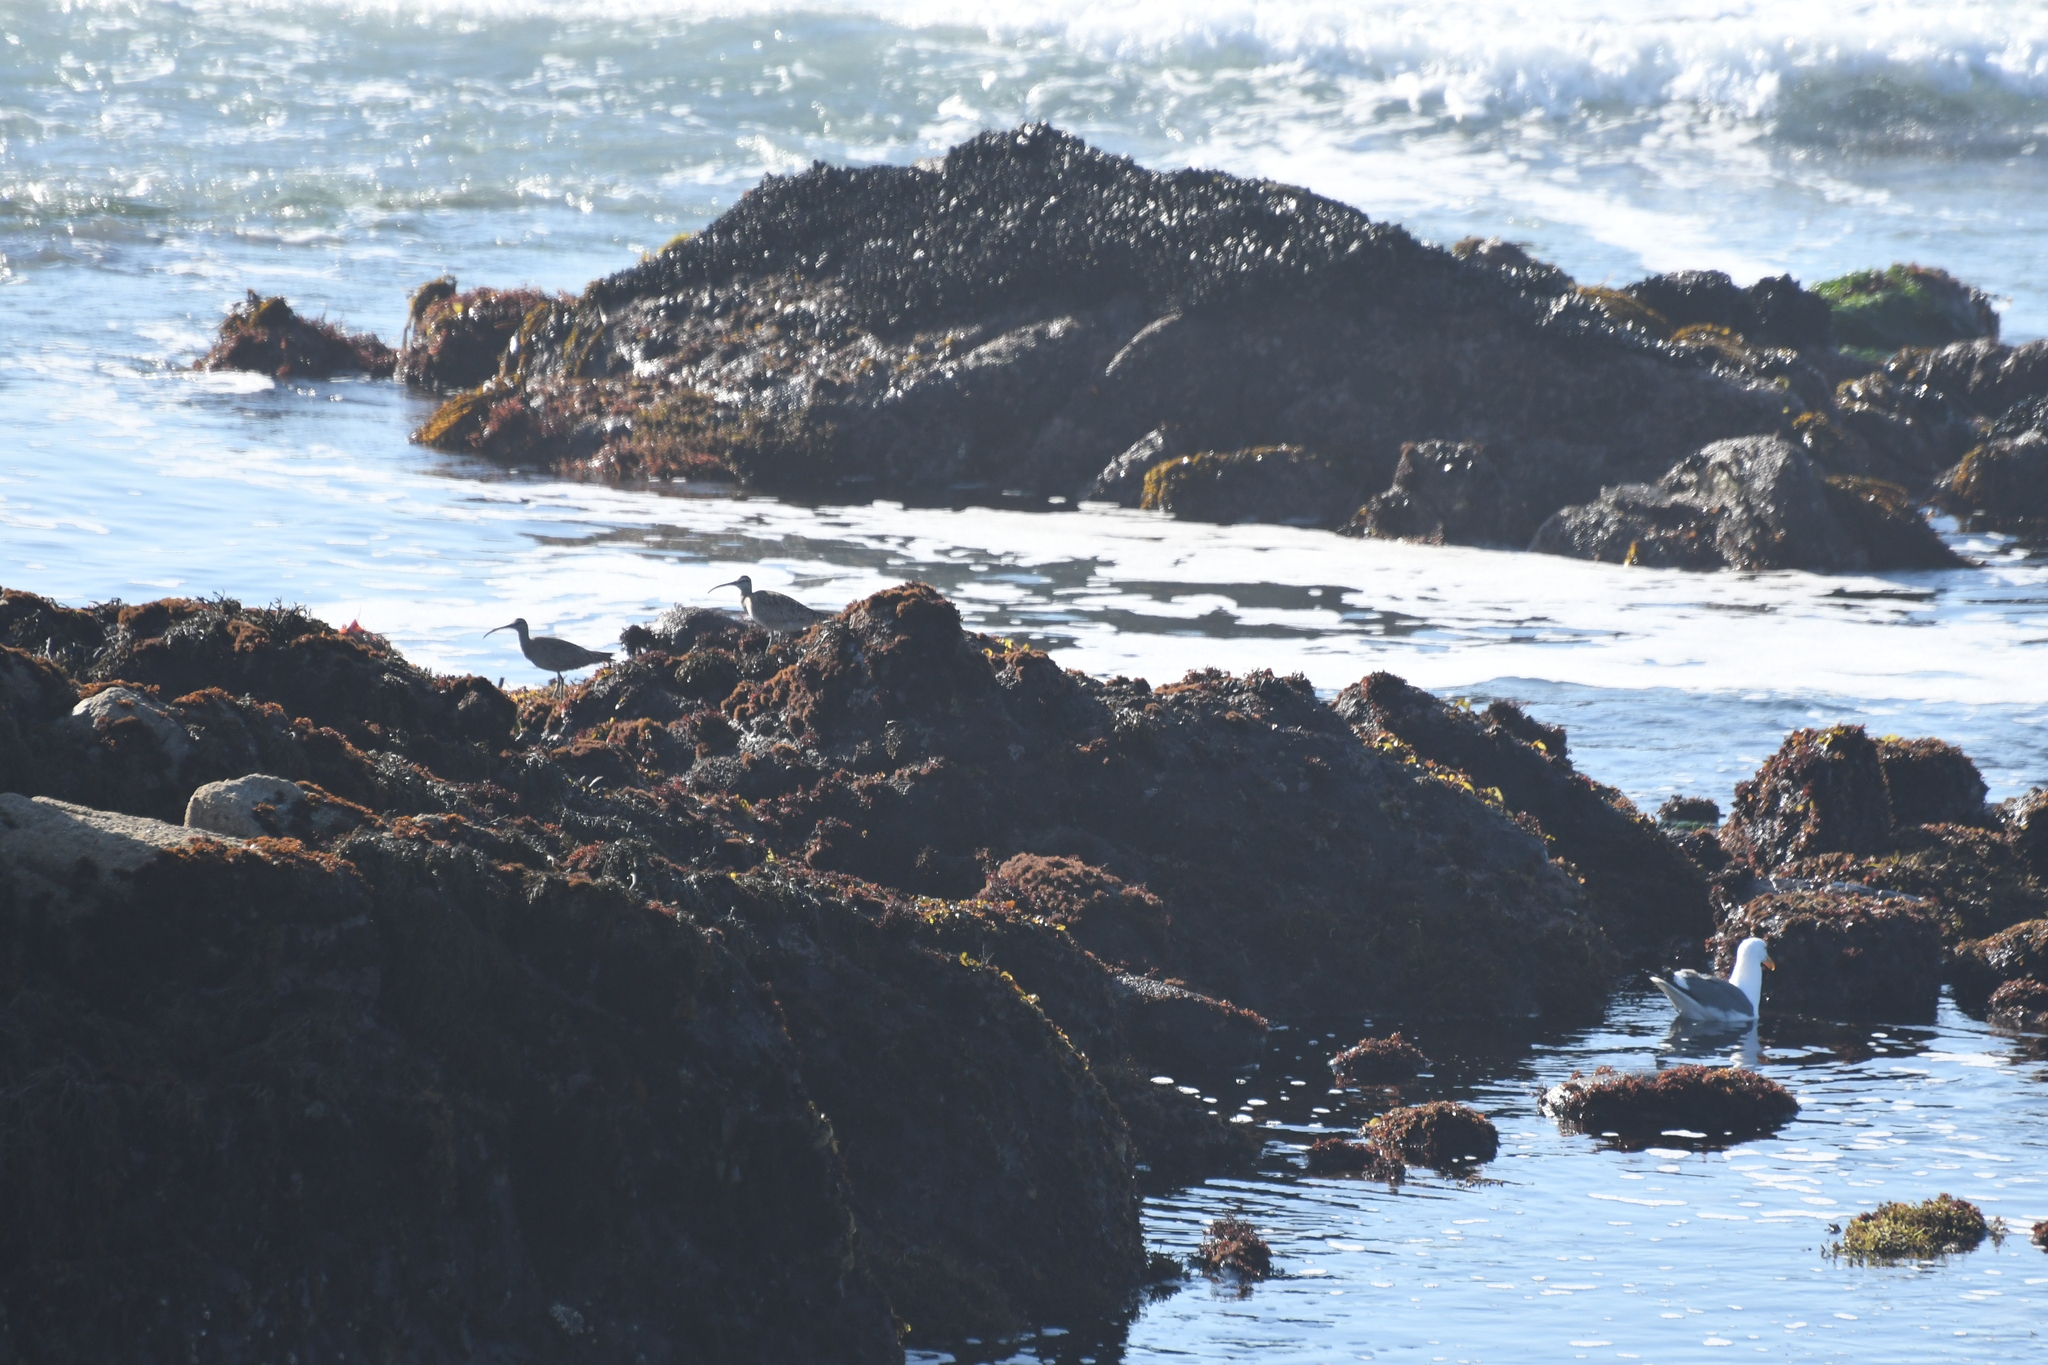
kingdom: Animalia
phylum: Chordata
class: Aves
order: Charadriiformes
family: Scolopacidae
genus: Numenius
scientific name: Numenius phaeopus
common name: Whimbrel
